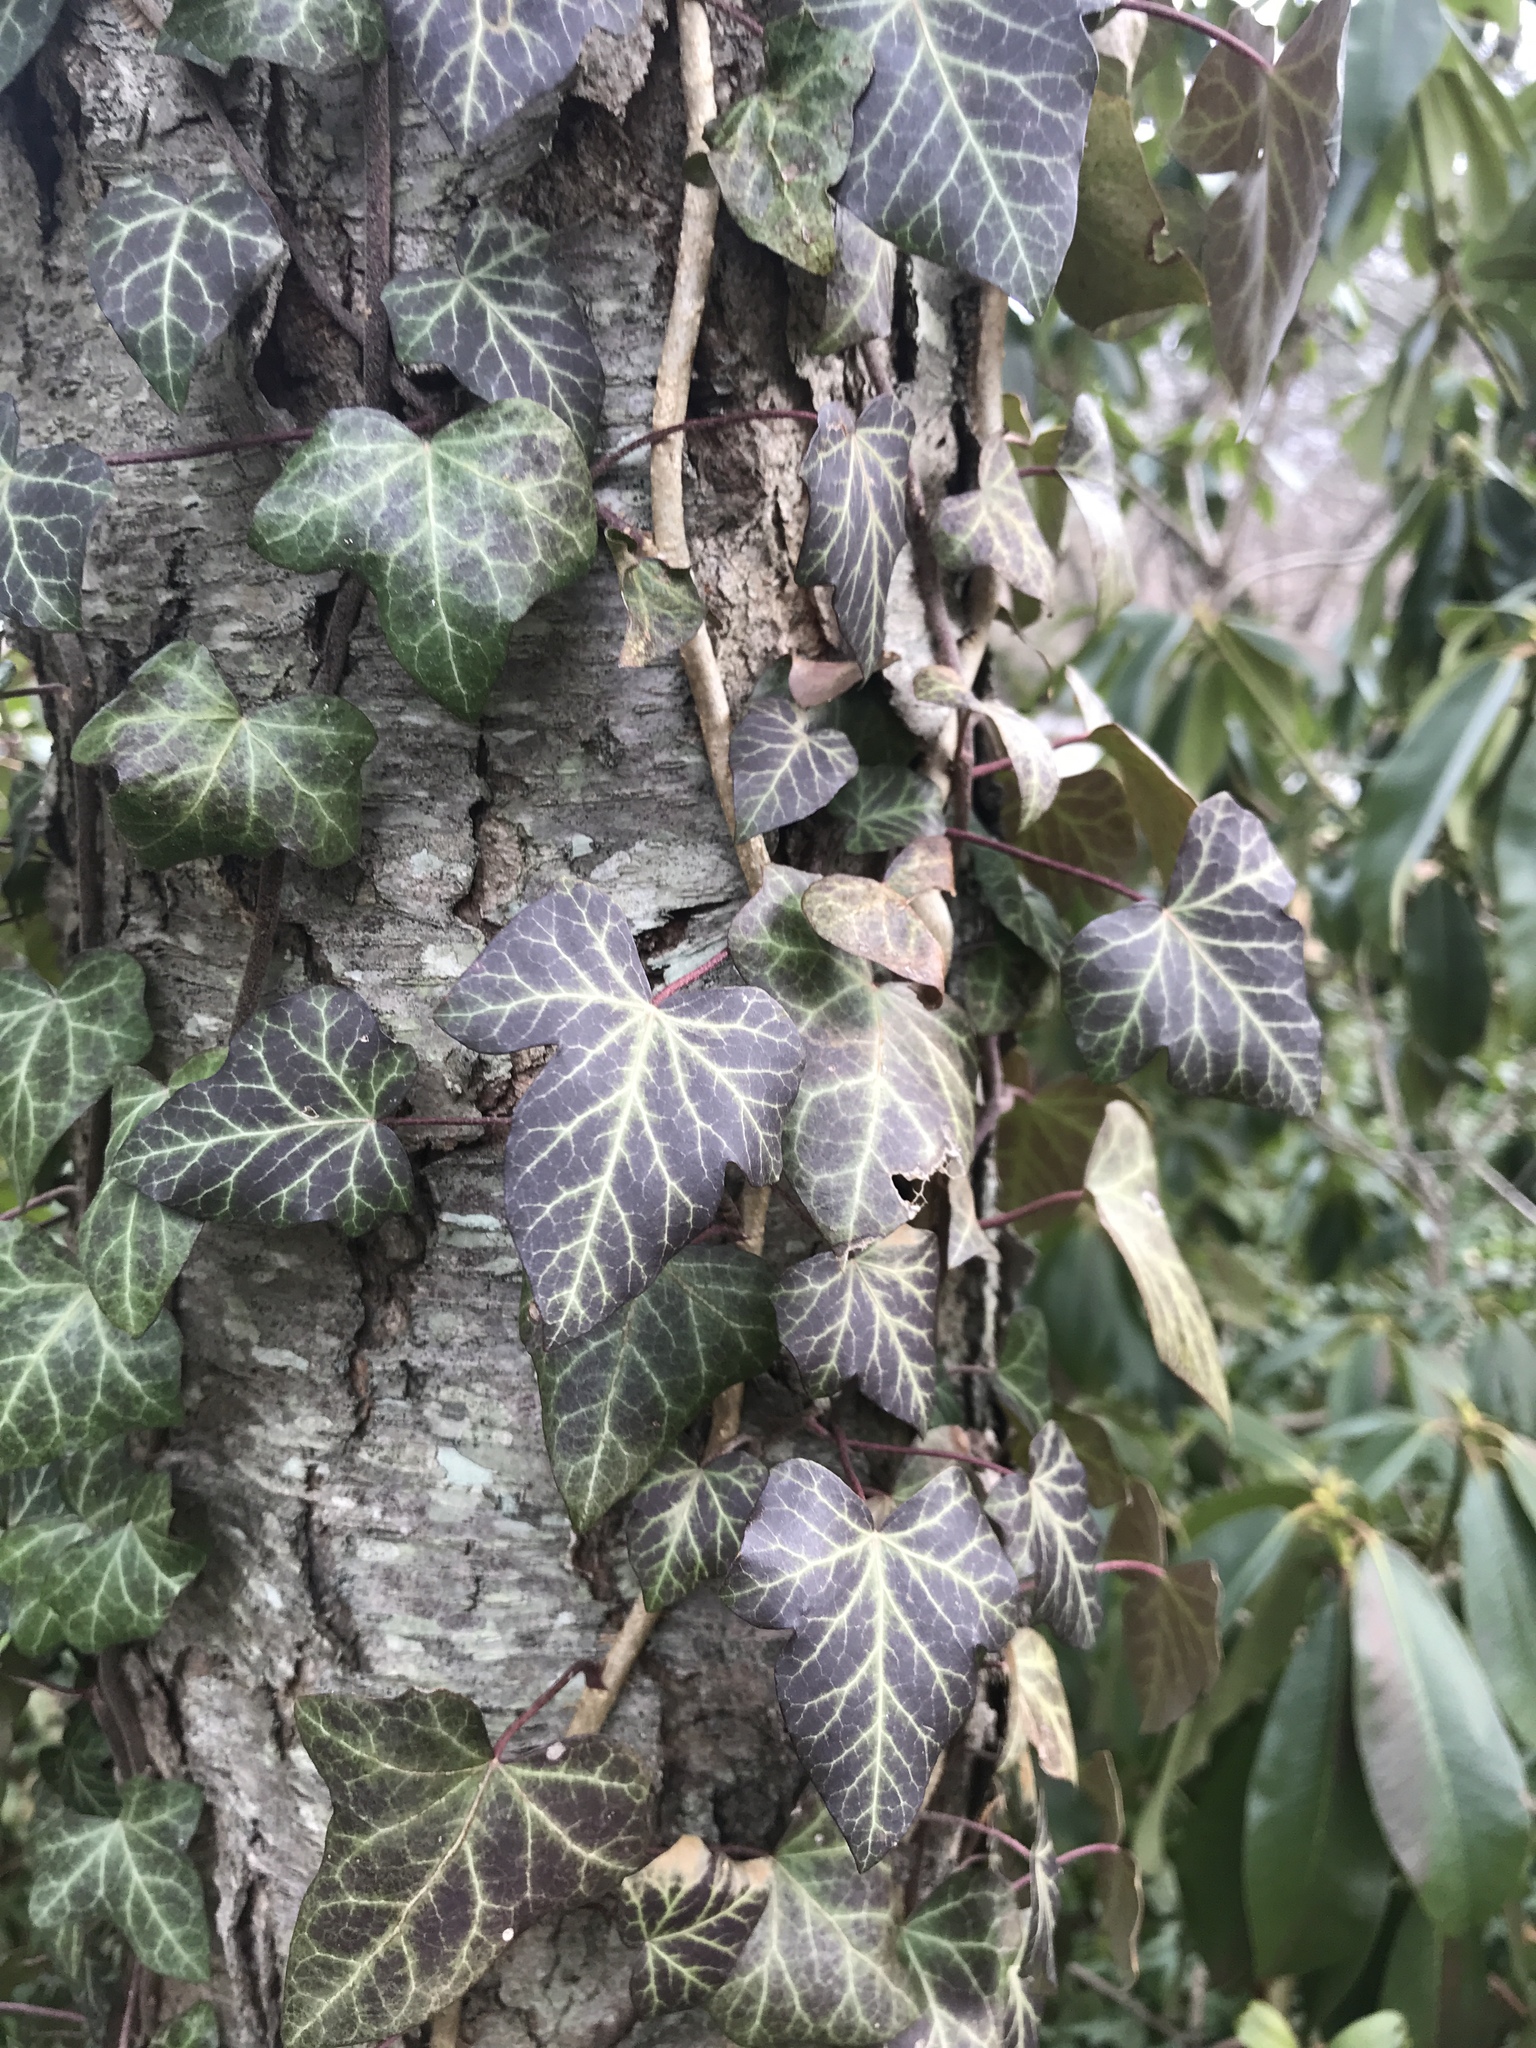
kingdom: Plantae
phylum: Tracheophyta
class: Magnoliopsida
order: Apiales
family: Araliaceae
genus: Hedera
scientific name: Hedera helix
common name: Ivy
